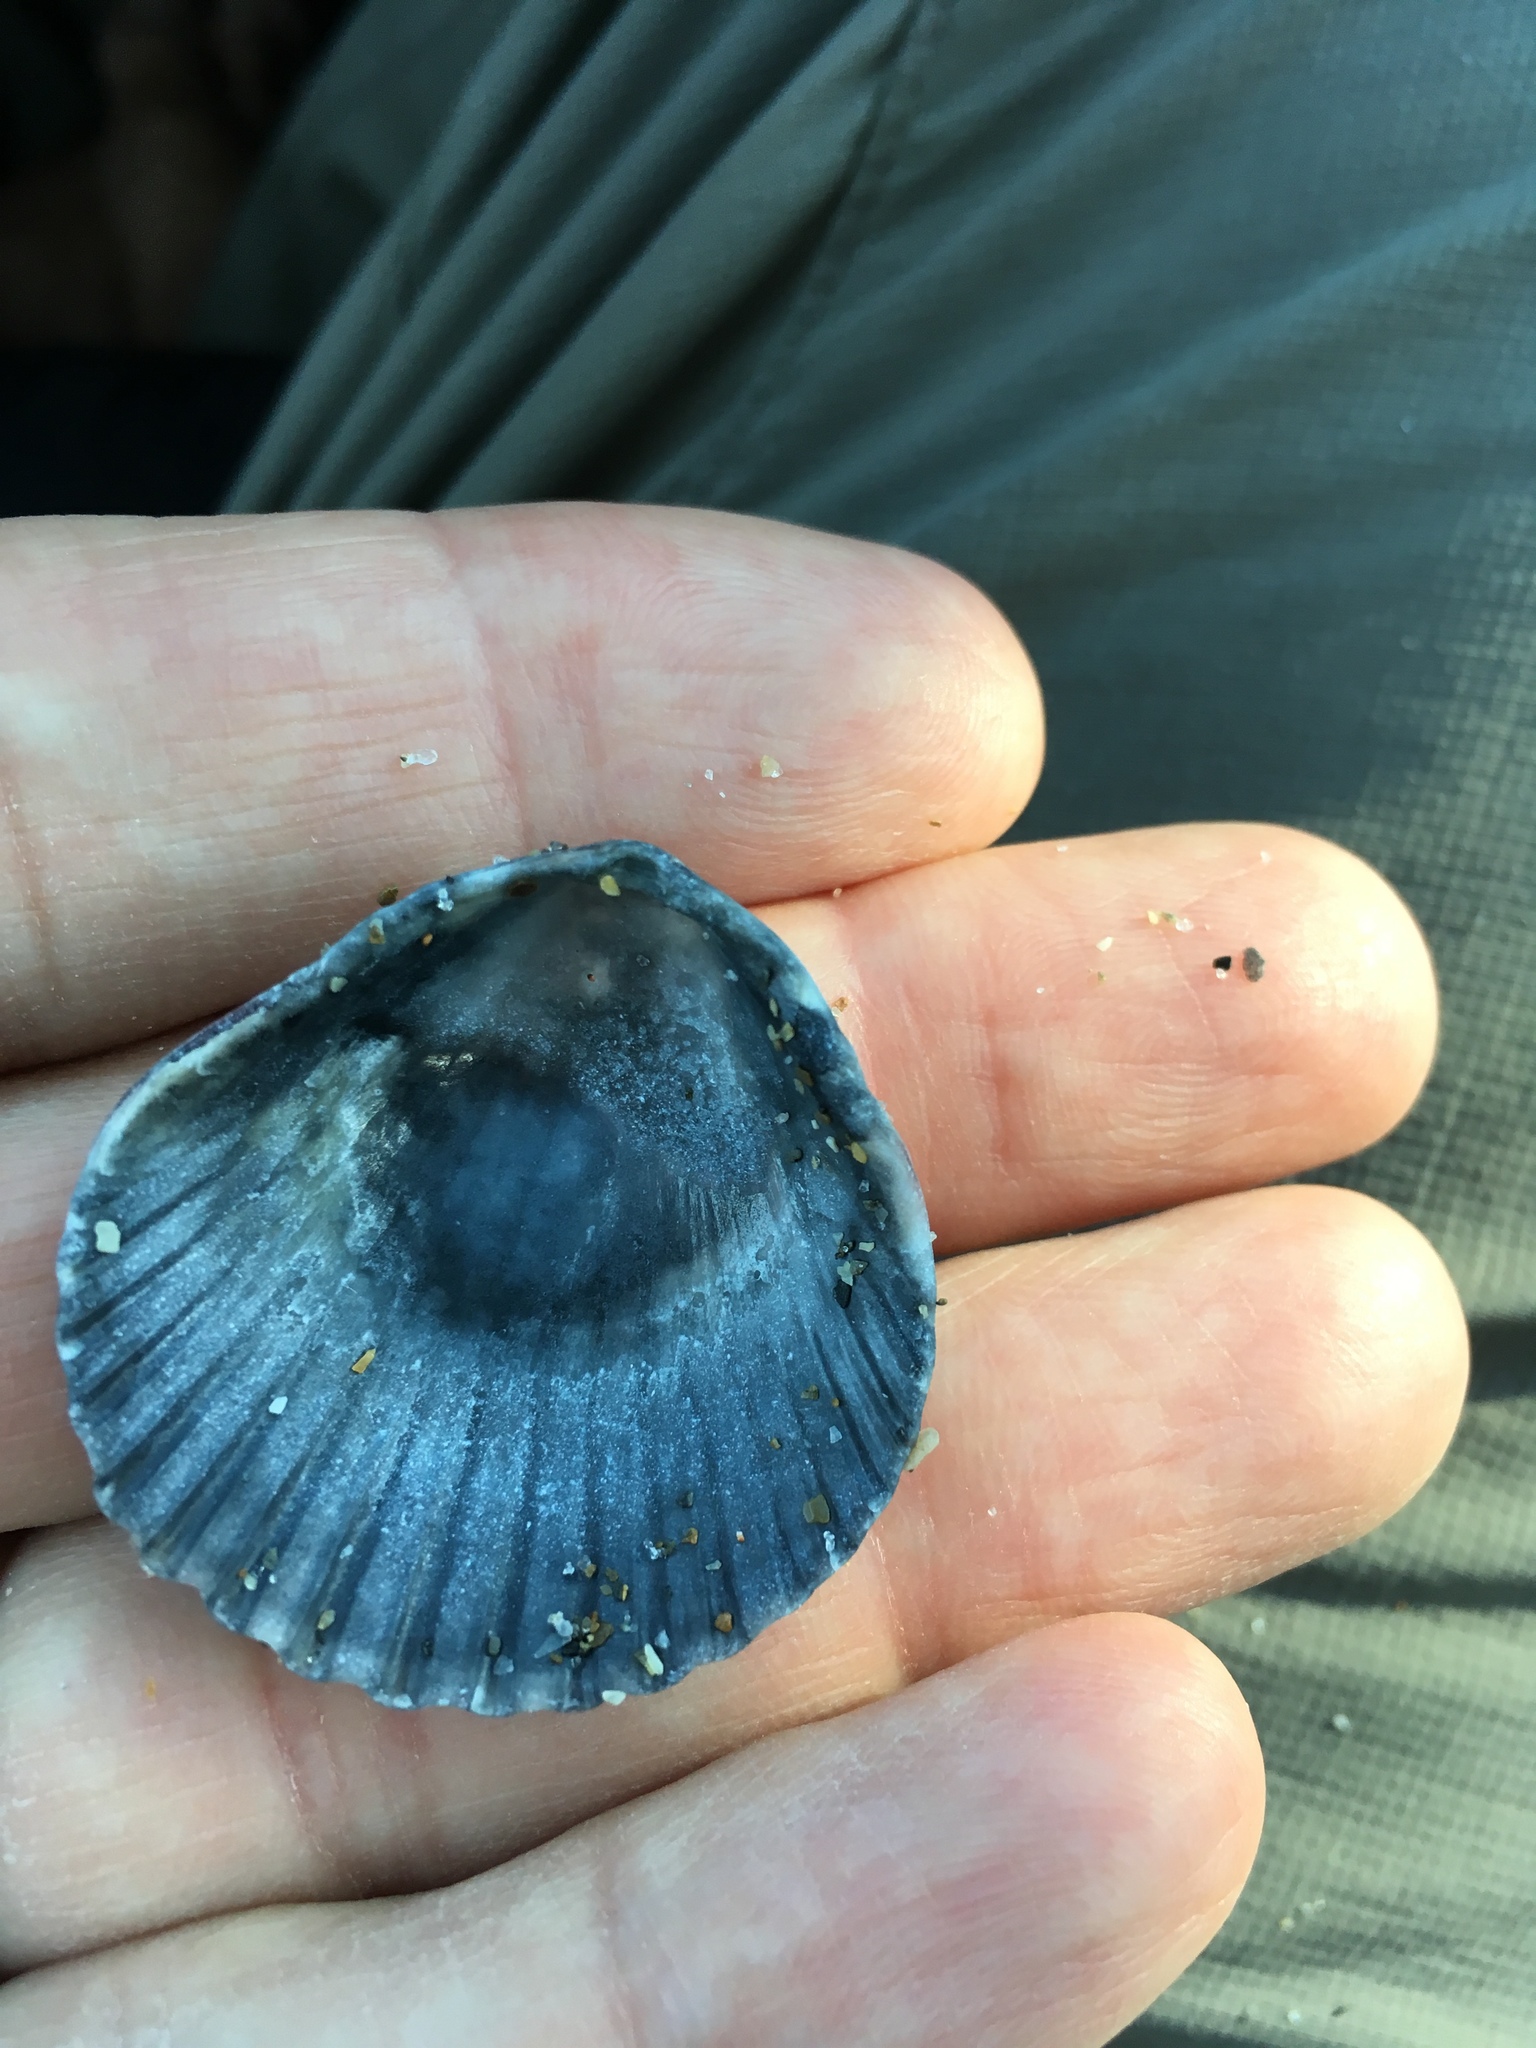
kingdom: Animalia
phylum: Mollusca
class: Bivalvia
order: Pectinida
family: Pectinidae
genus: Argopecten
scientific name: Argopecten gibbus
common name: Atlantic calico scallop
